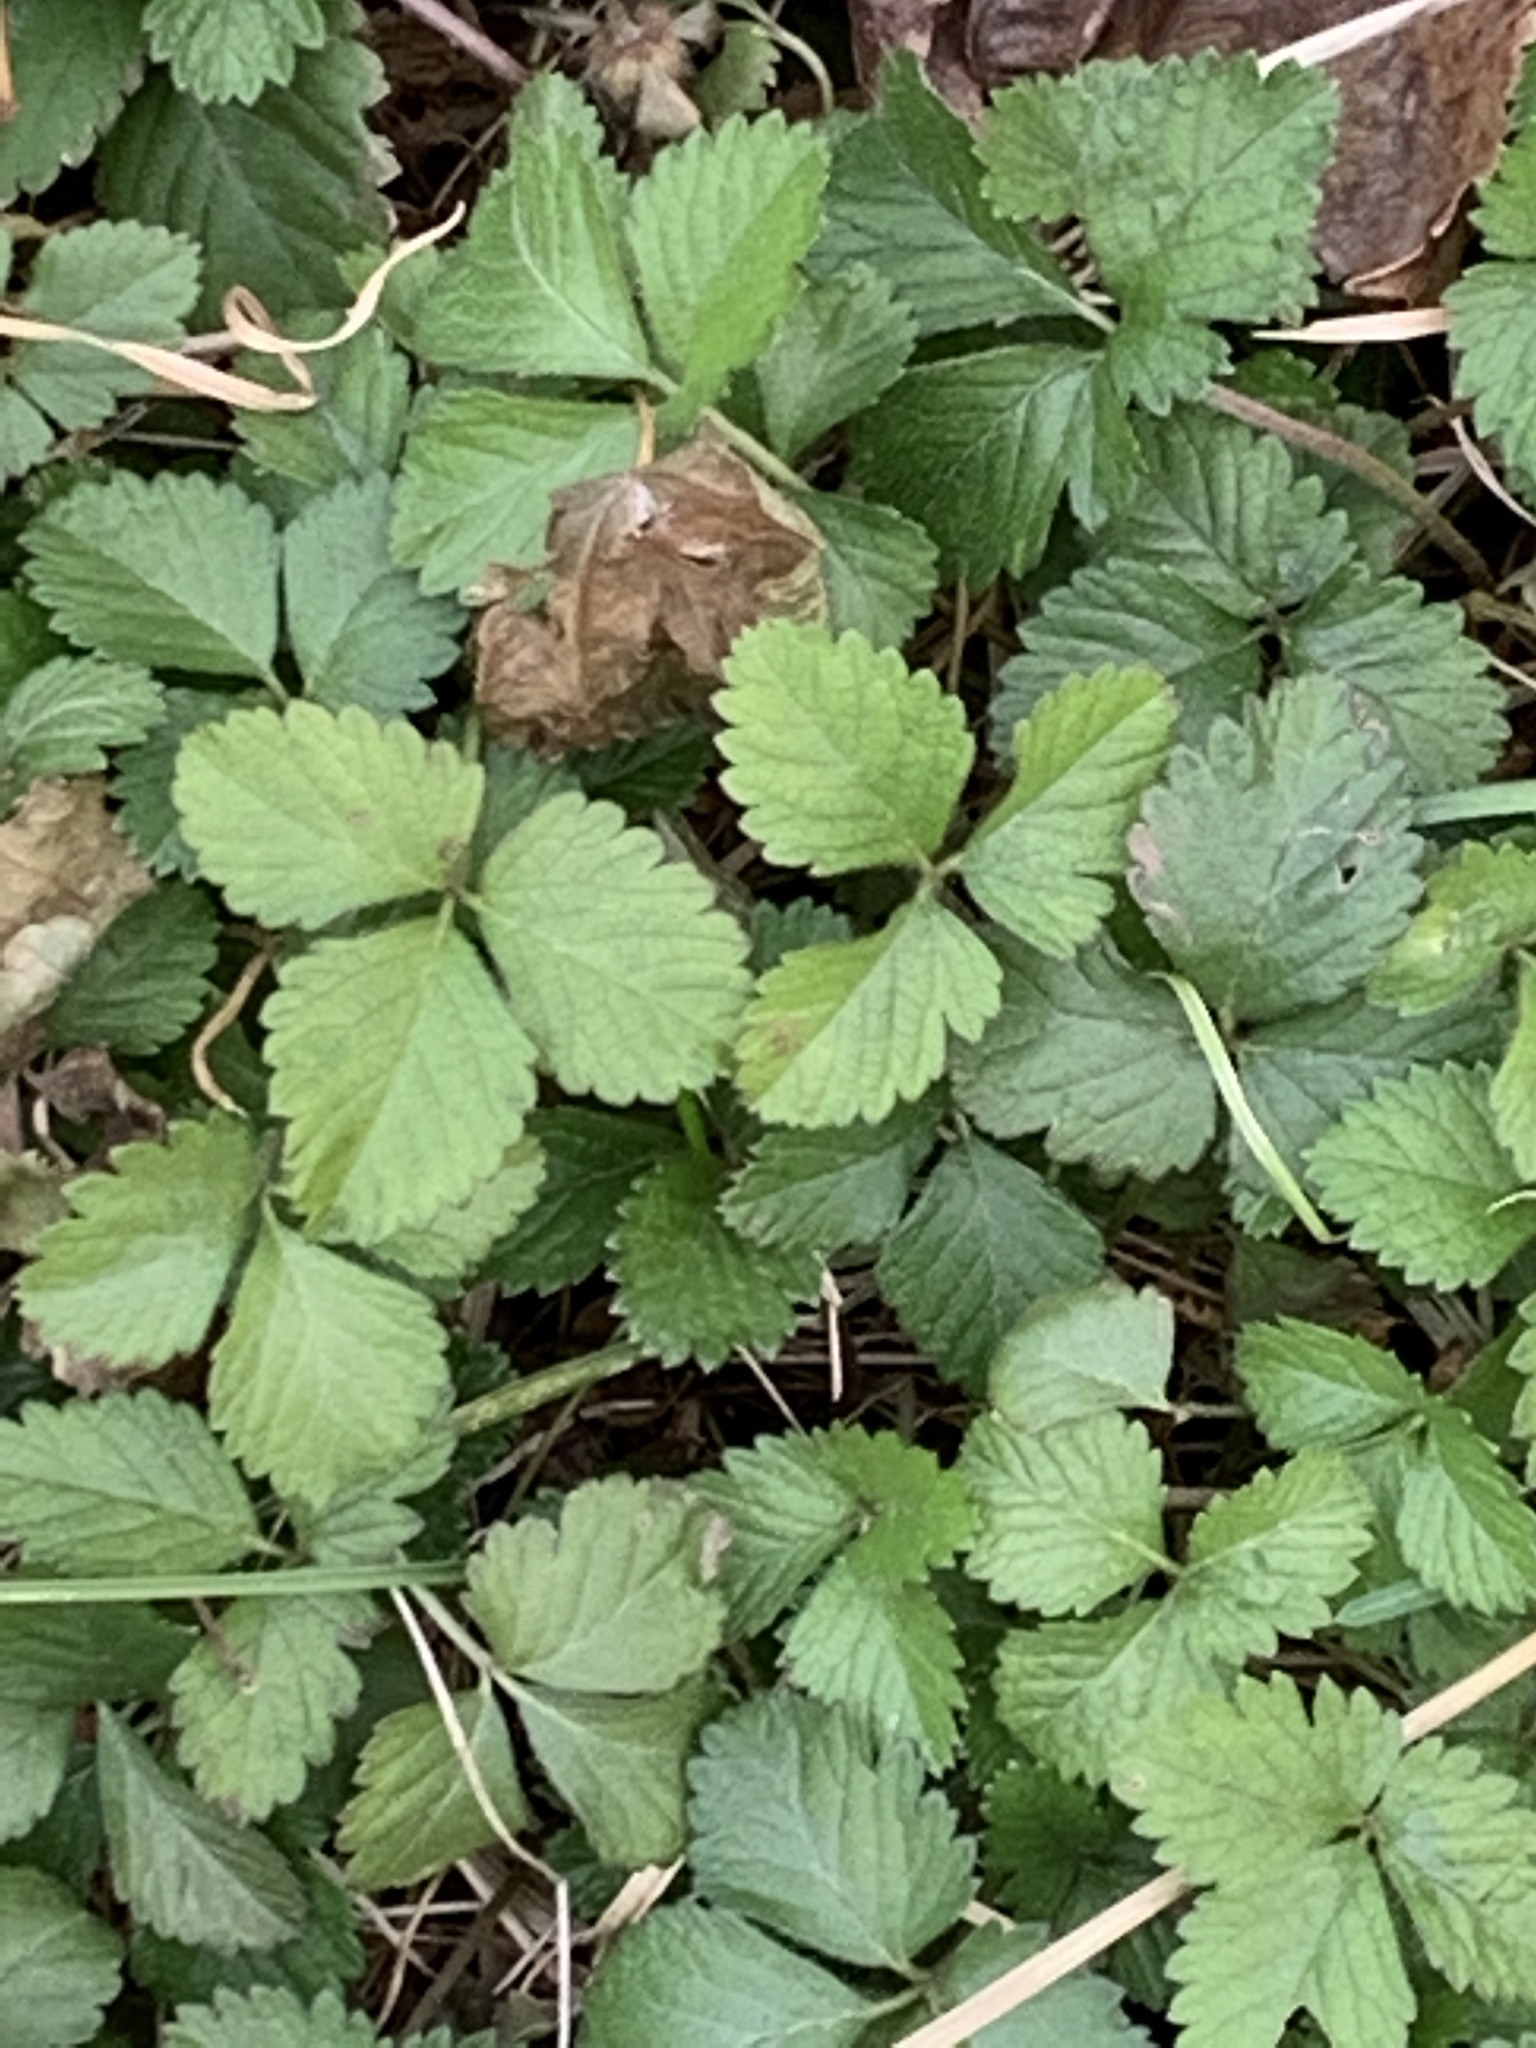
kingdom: Plantae
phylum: Tracheophyta
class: Magnoliopsida
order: Rosales
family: Rosaceae
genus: Potentilla
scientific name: Potentilla indica
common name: Yellow-flowered strawberry
